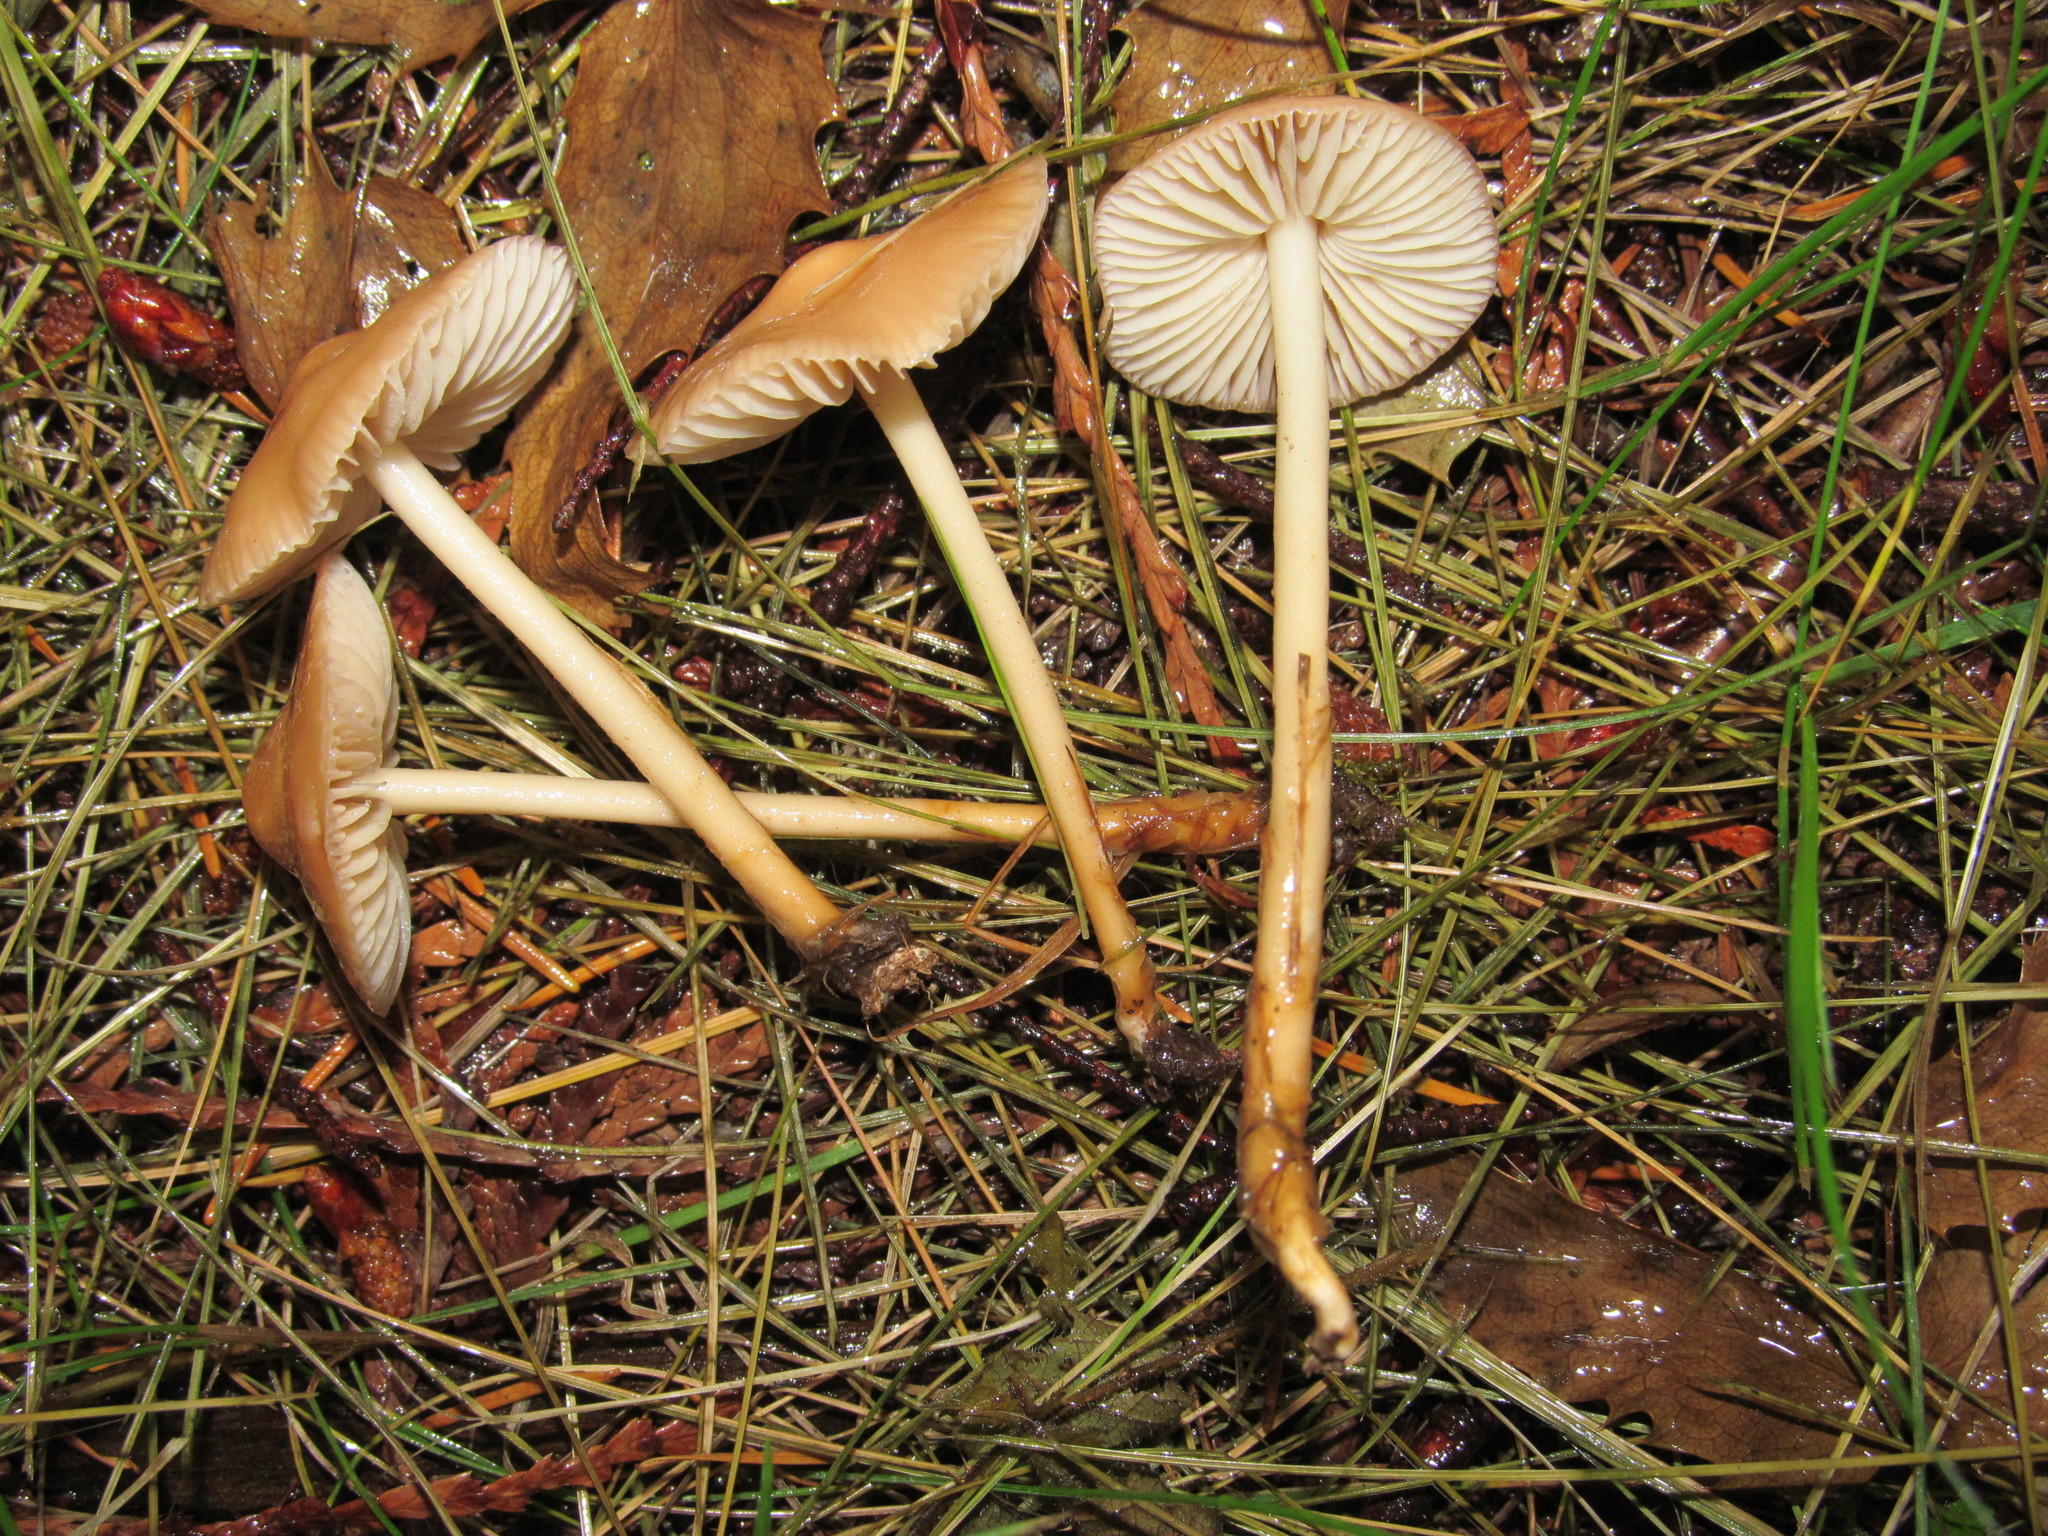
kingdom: Fungi
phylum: Basidiomycota
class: Agaricomycetes
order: Agaricales
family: Marasmiaceae
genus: Marasmius
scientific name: Marasmius oreades
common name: Fairy ring champignon
